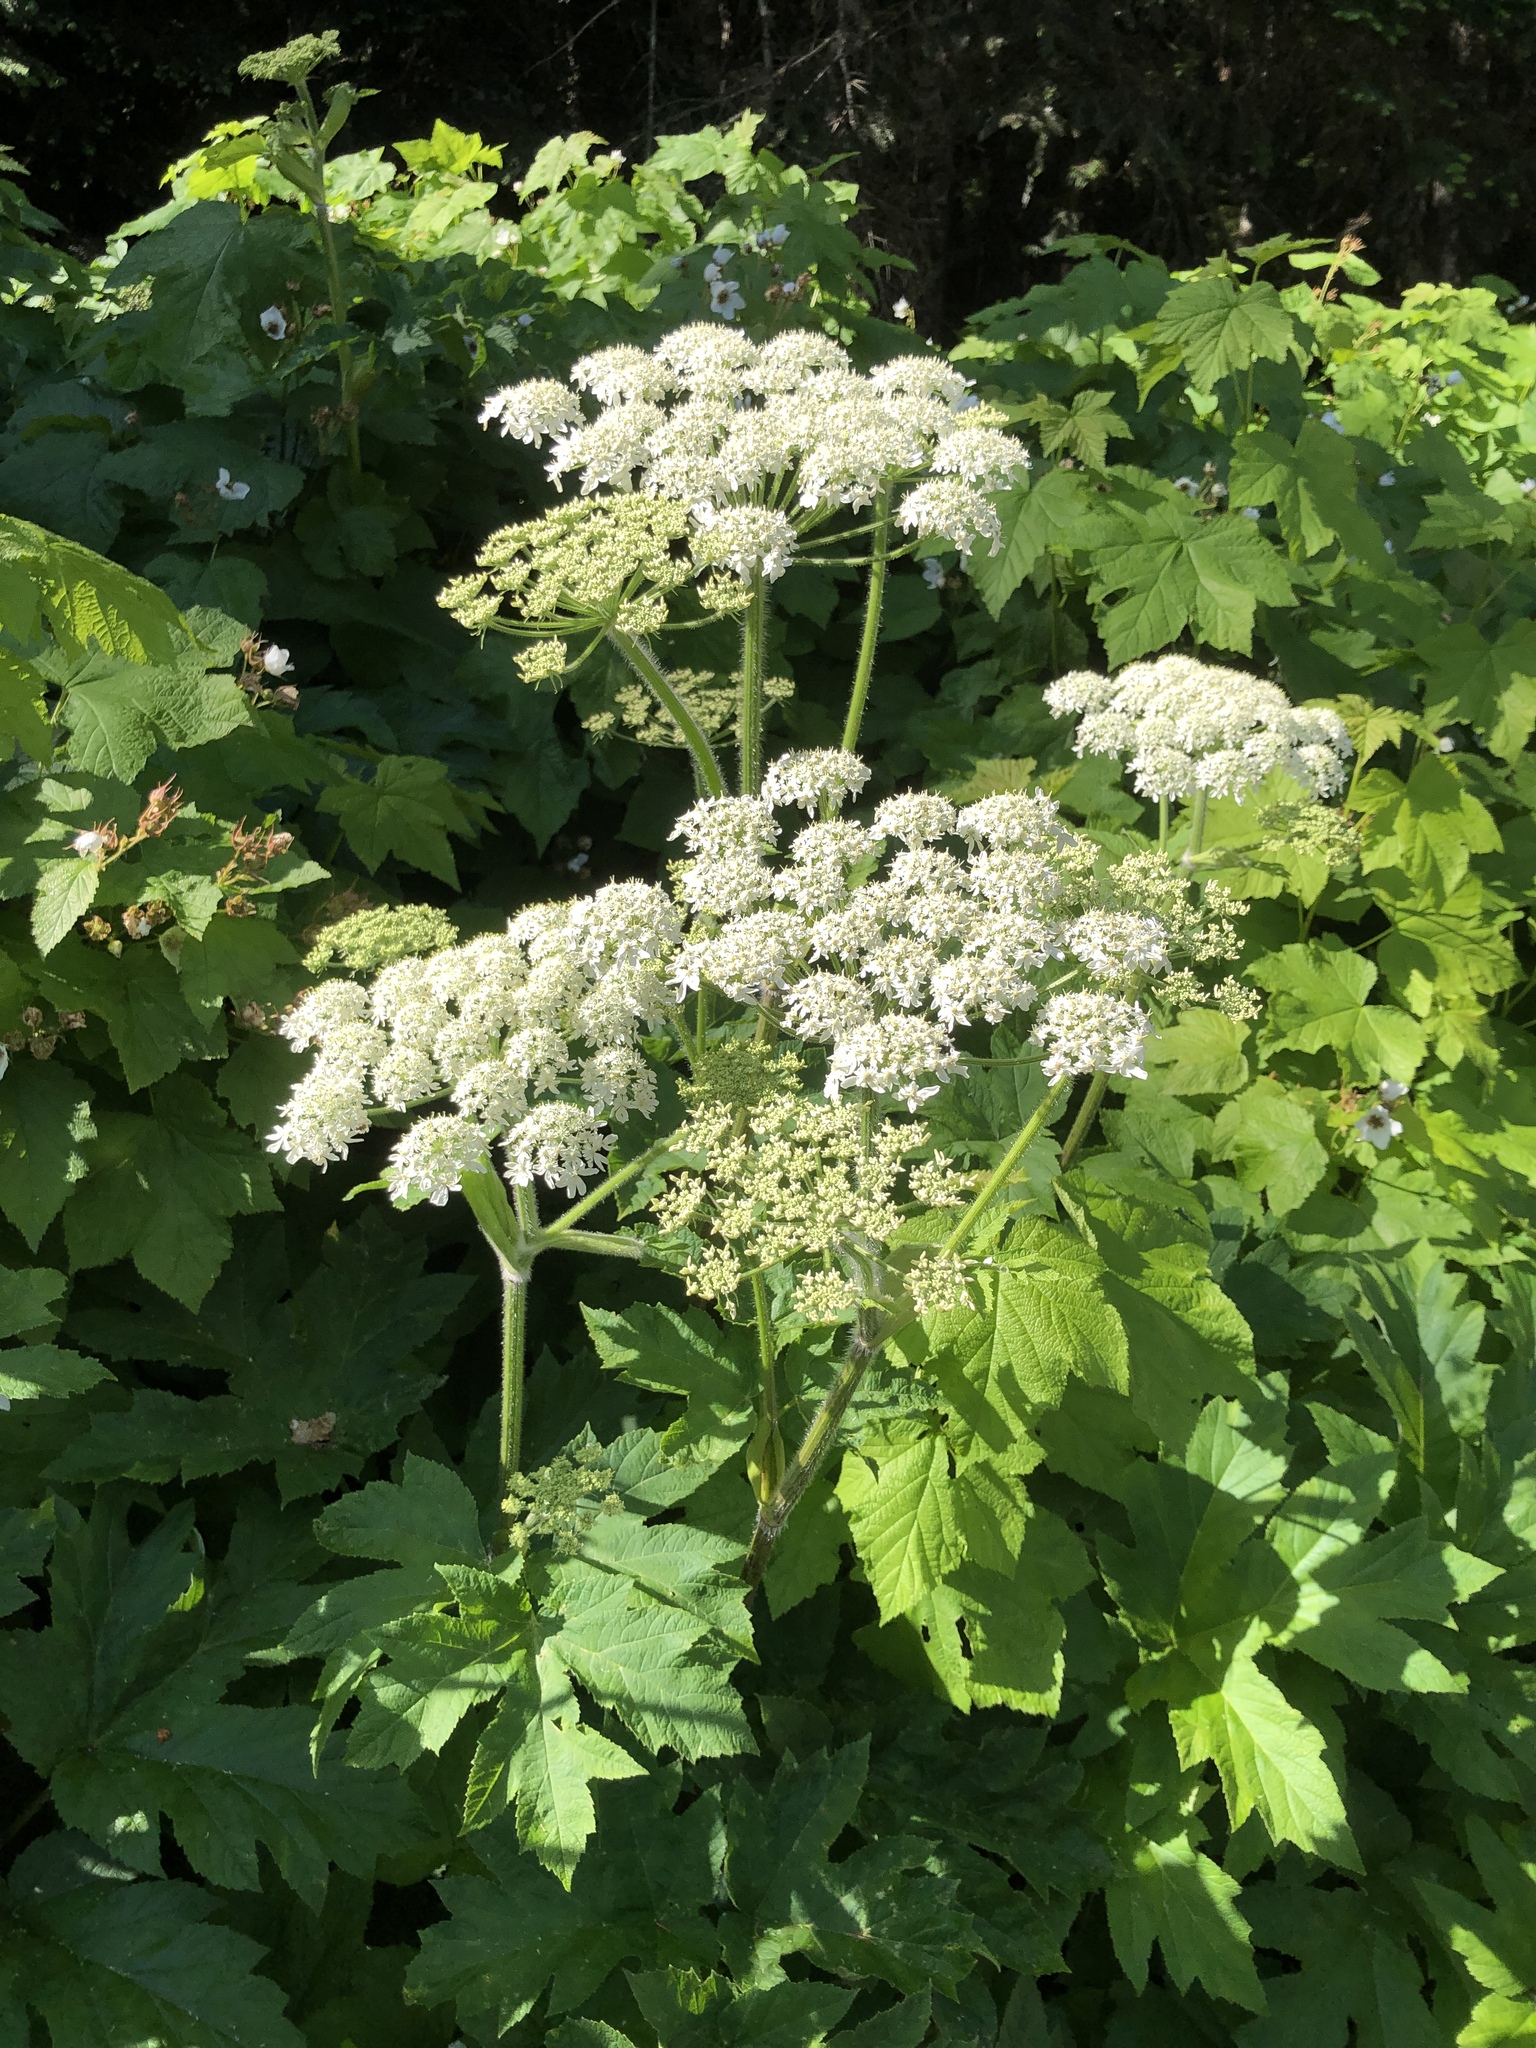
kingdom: Plantae
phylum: Tracheophyta
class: Magnoliopsida
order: Apiales
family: Apiaceae
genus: Heracleum
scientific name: Heracleum maximum
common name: American cow parsnip
